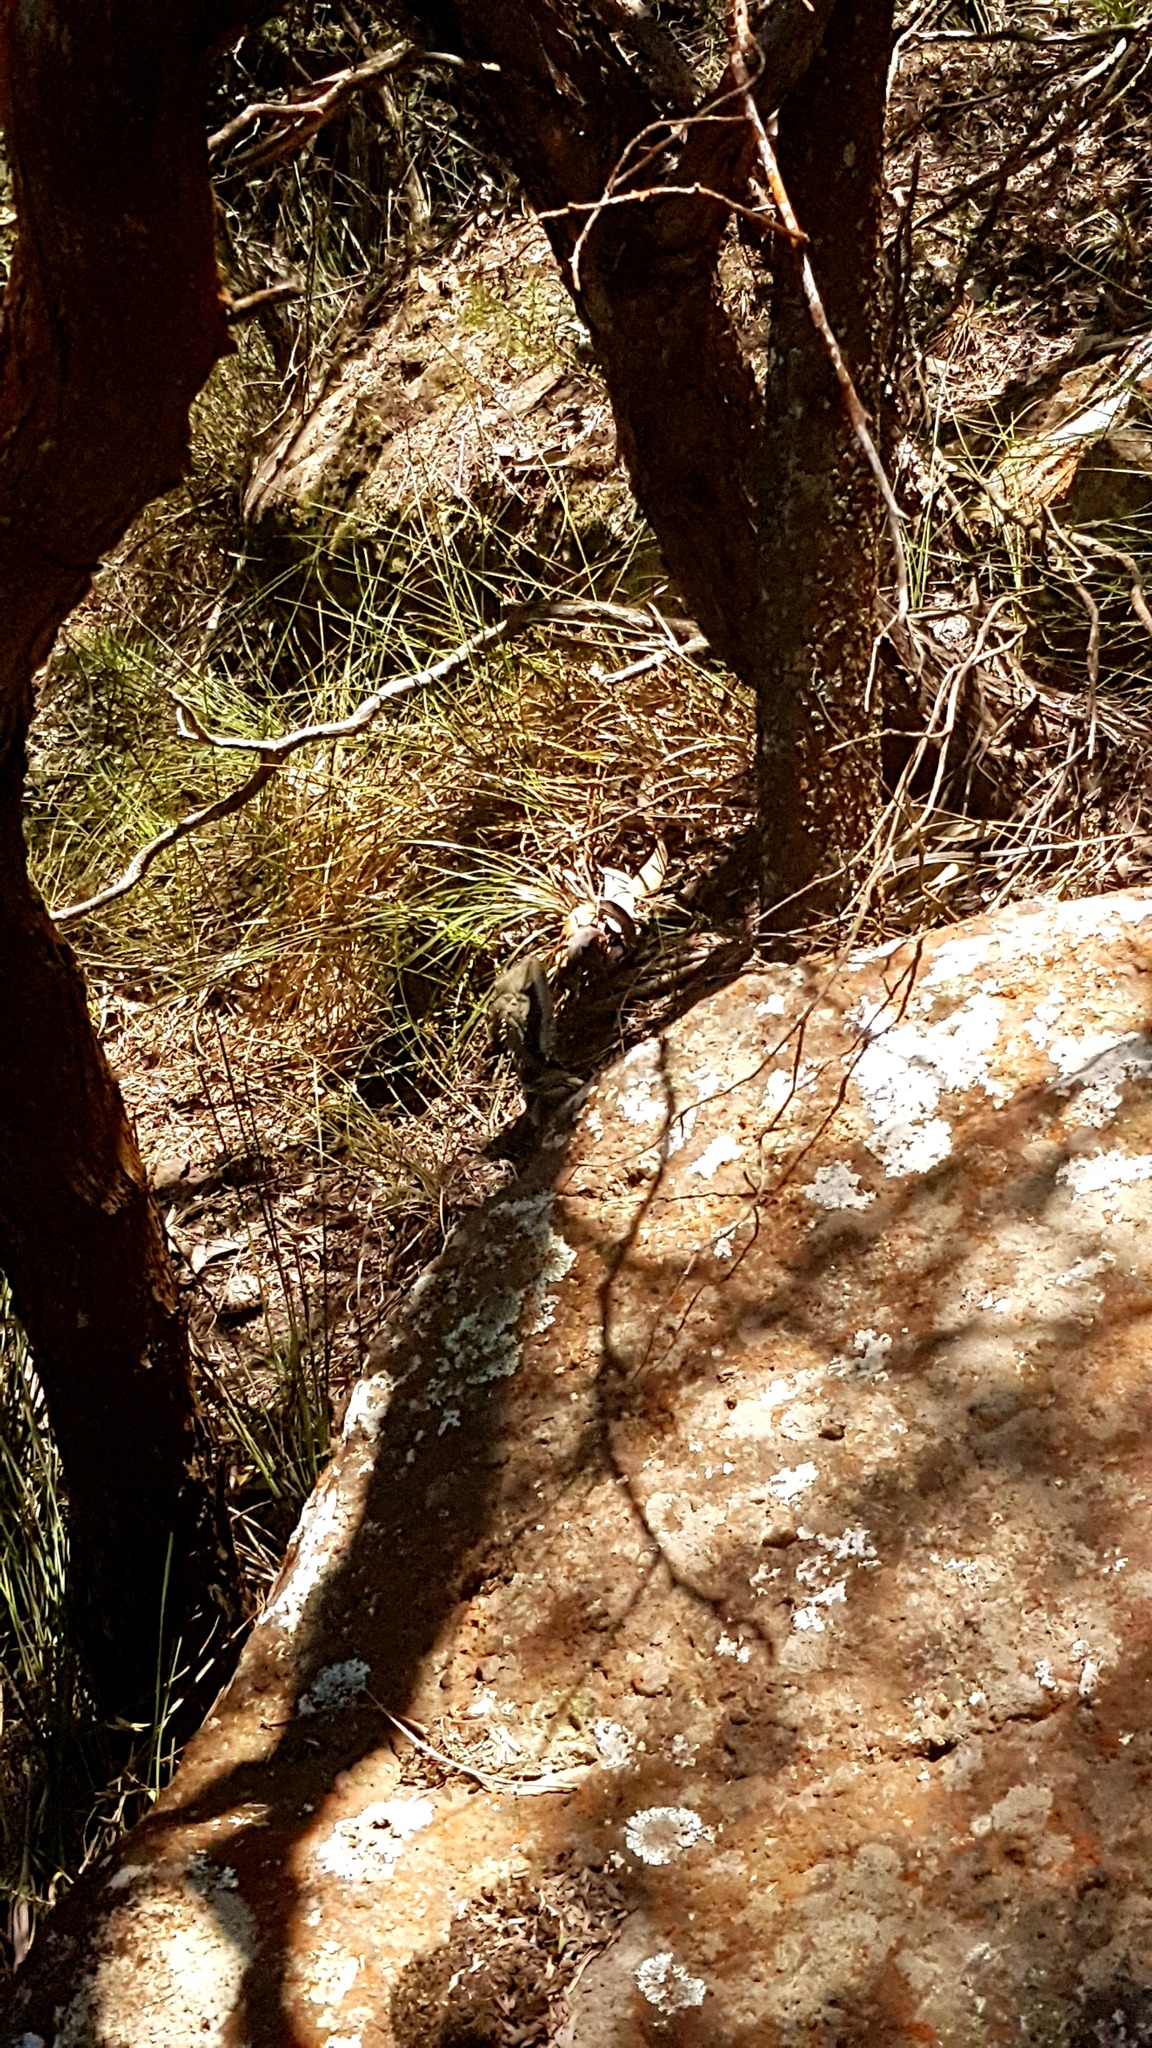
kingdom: Animalia
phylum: Chordata
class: Squamata
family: Agamidae
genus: Intellagama
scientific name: Intellagama lesueurii
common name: Eastern water dragon
